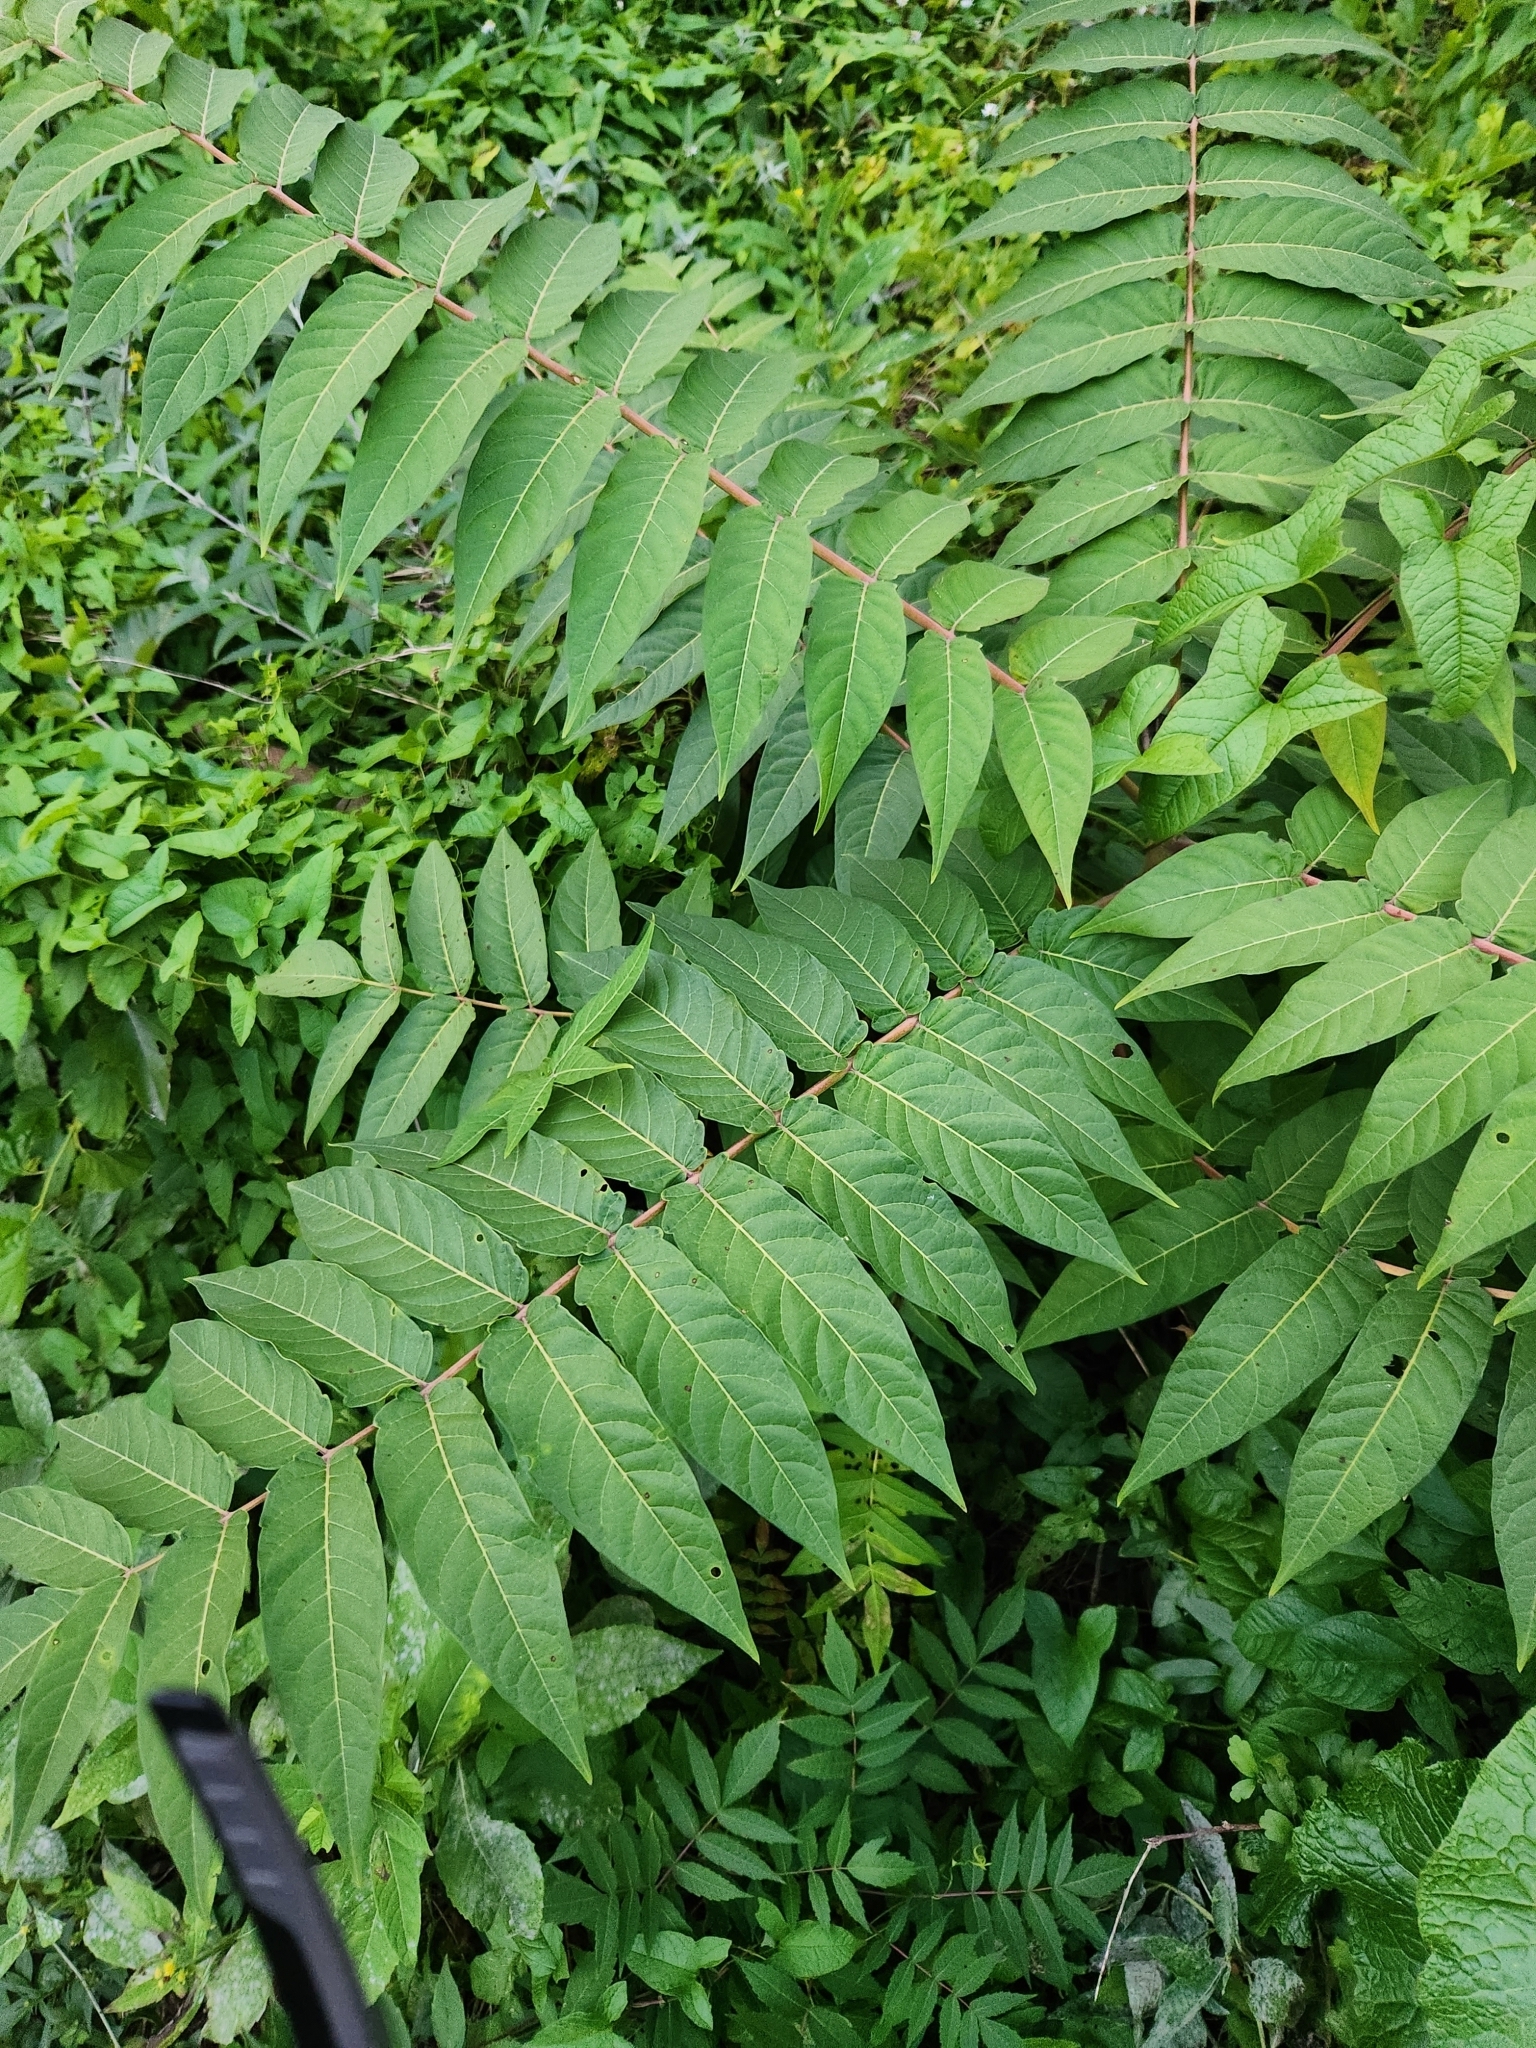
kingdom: Plantae
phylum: Tracheophyta
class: Magnoliopsida
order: Sapindales
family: Simaroubaceae
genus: Ailanthus
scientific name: Ailanthus altissima
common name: Tree-of-heaven
